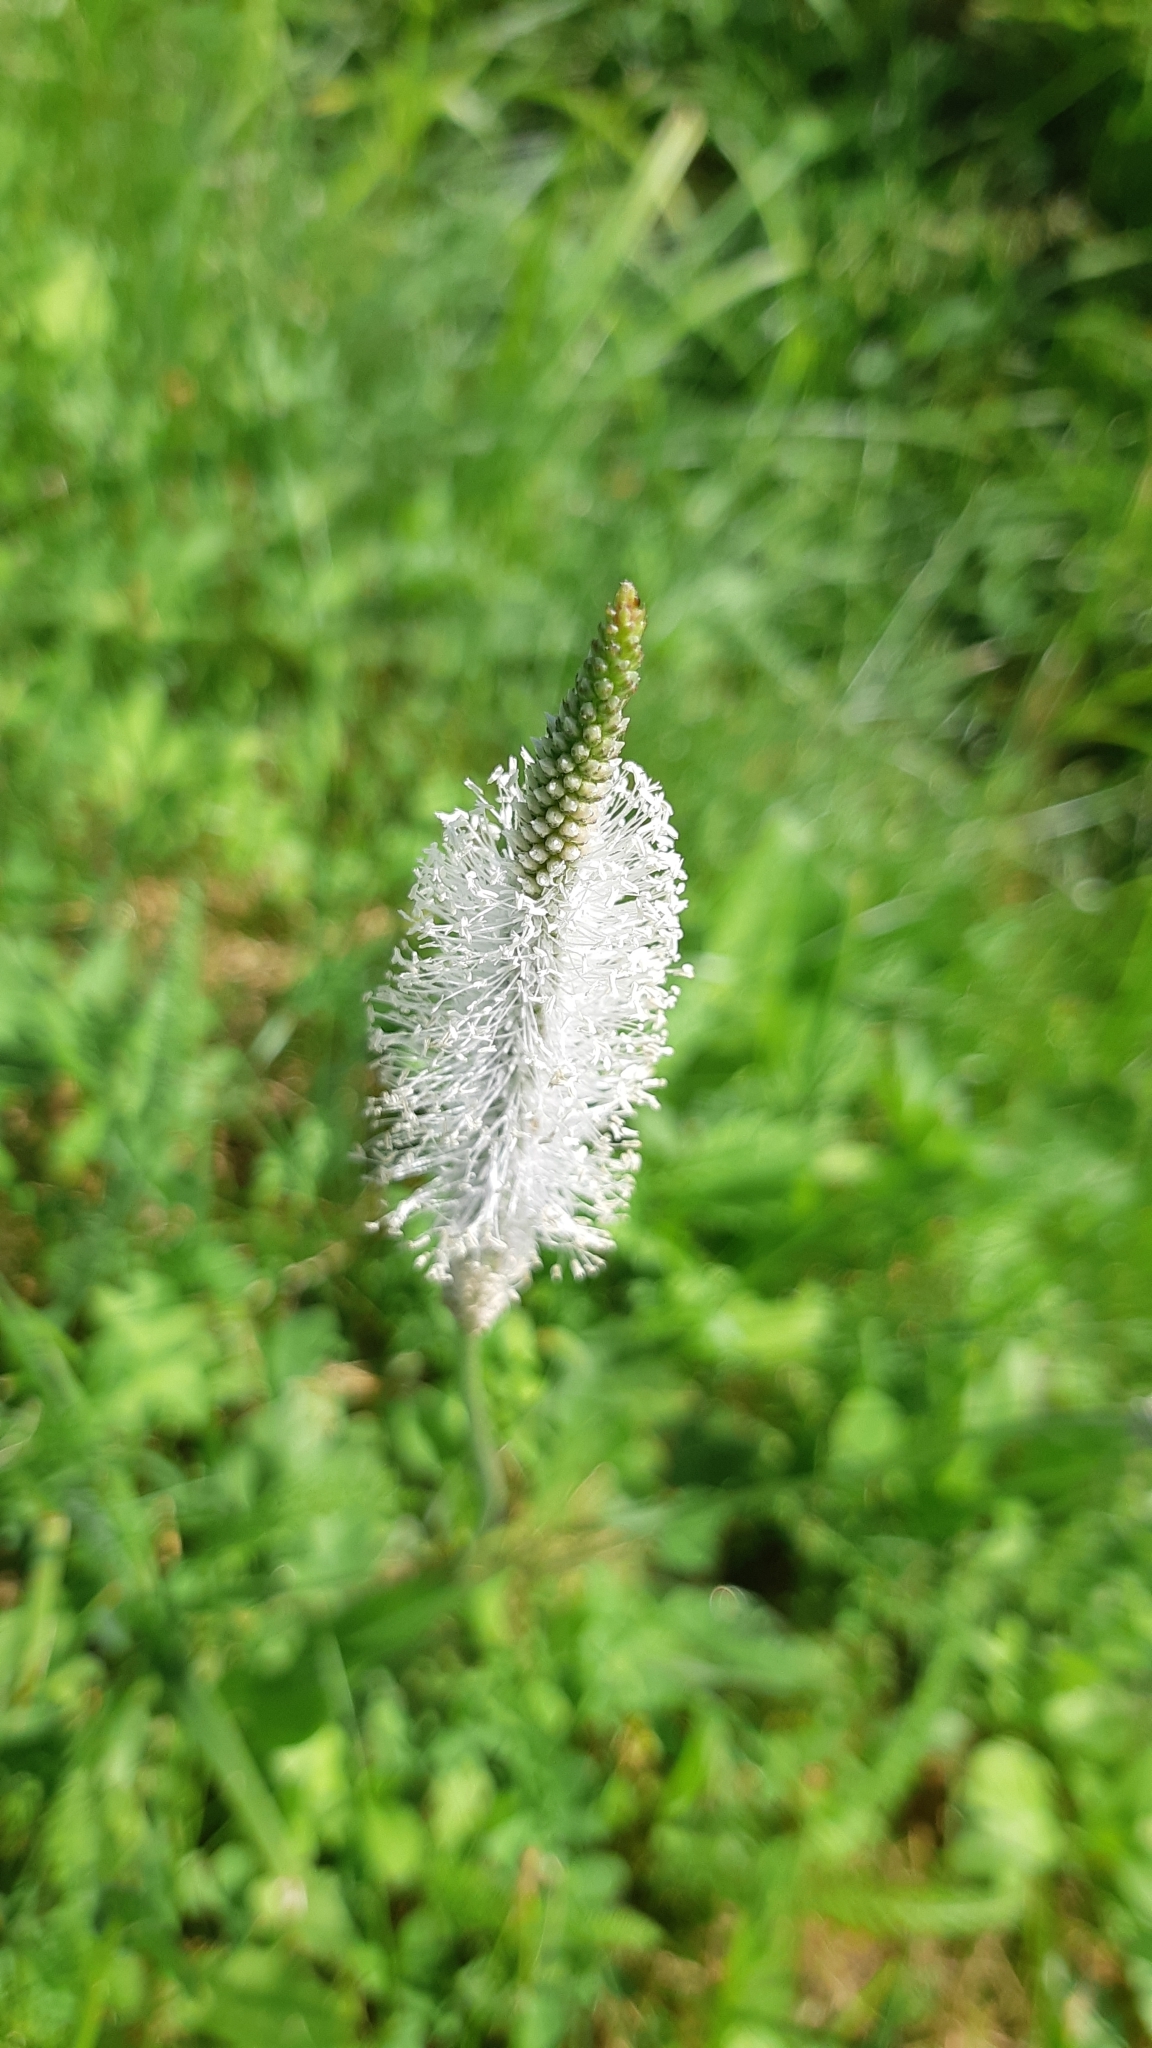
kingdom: Plantae
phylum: Tracheophyta
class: Magnoliopsida
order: Lamiales
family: Plantaginaceae
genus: Plantago
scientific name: Plantago media
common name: Hoary plantain
